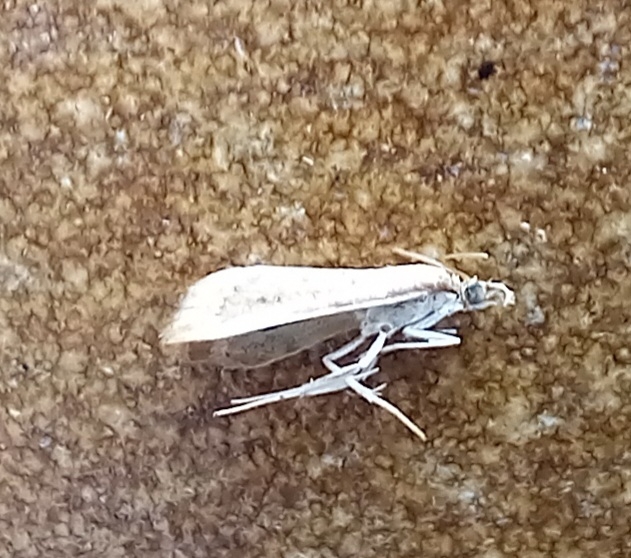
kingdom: Animalia
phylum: Arthropoda
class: Insecta
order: Lepidoptera
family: Crambidae
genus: Udea
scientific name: Udea ferrugalis
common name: Rusty dot
